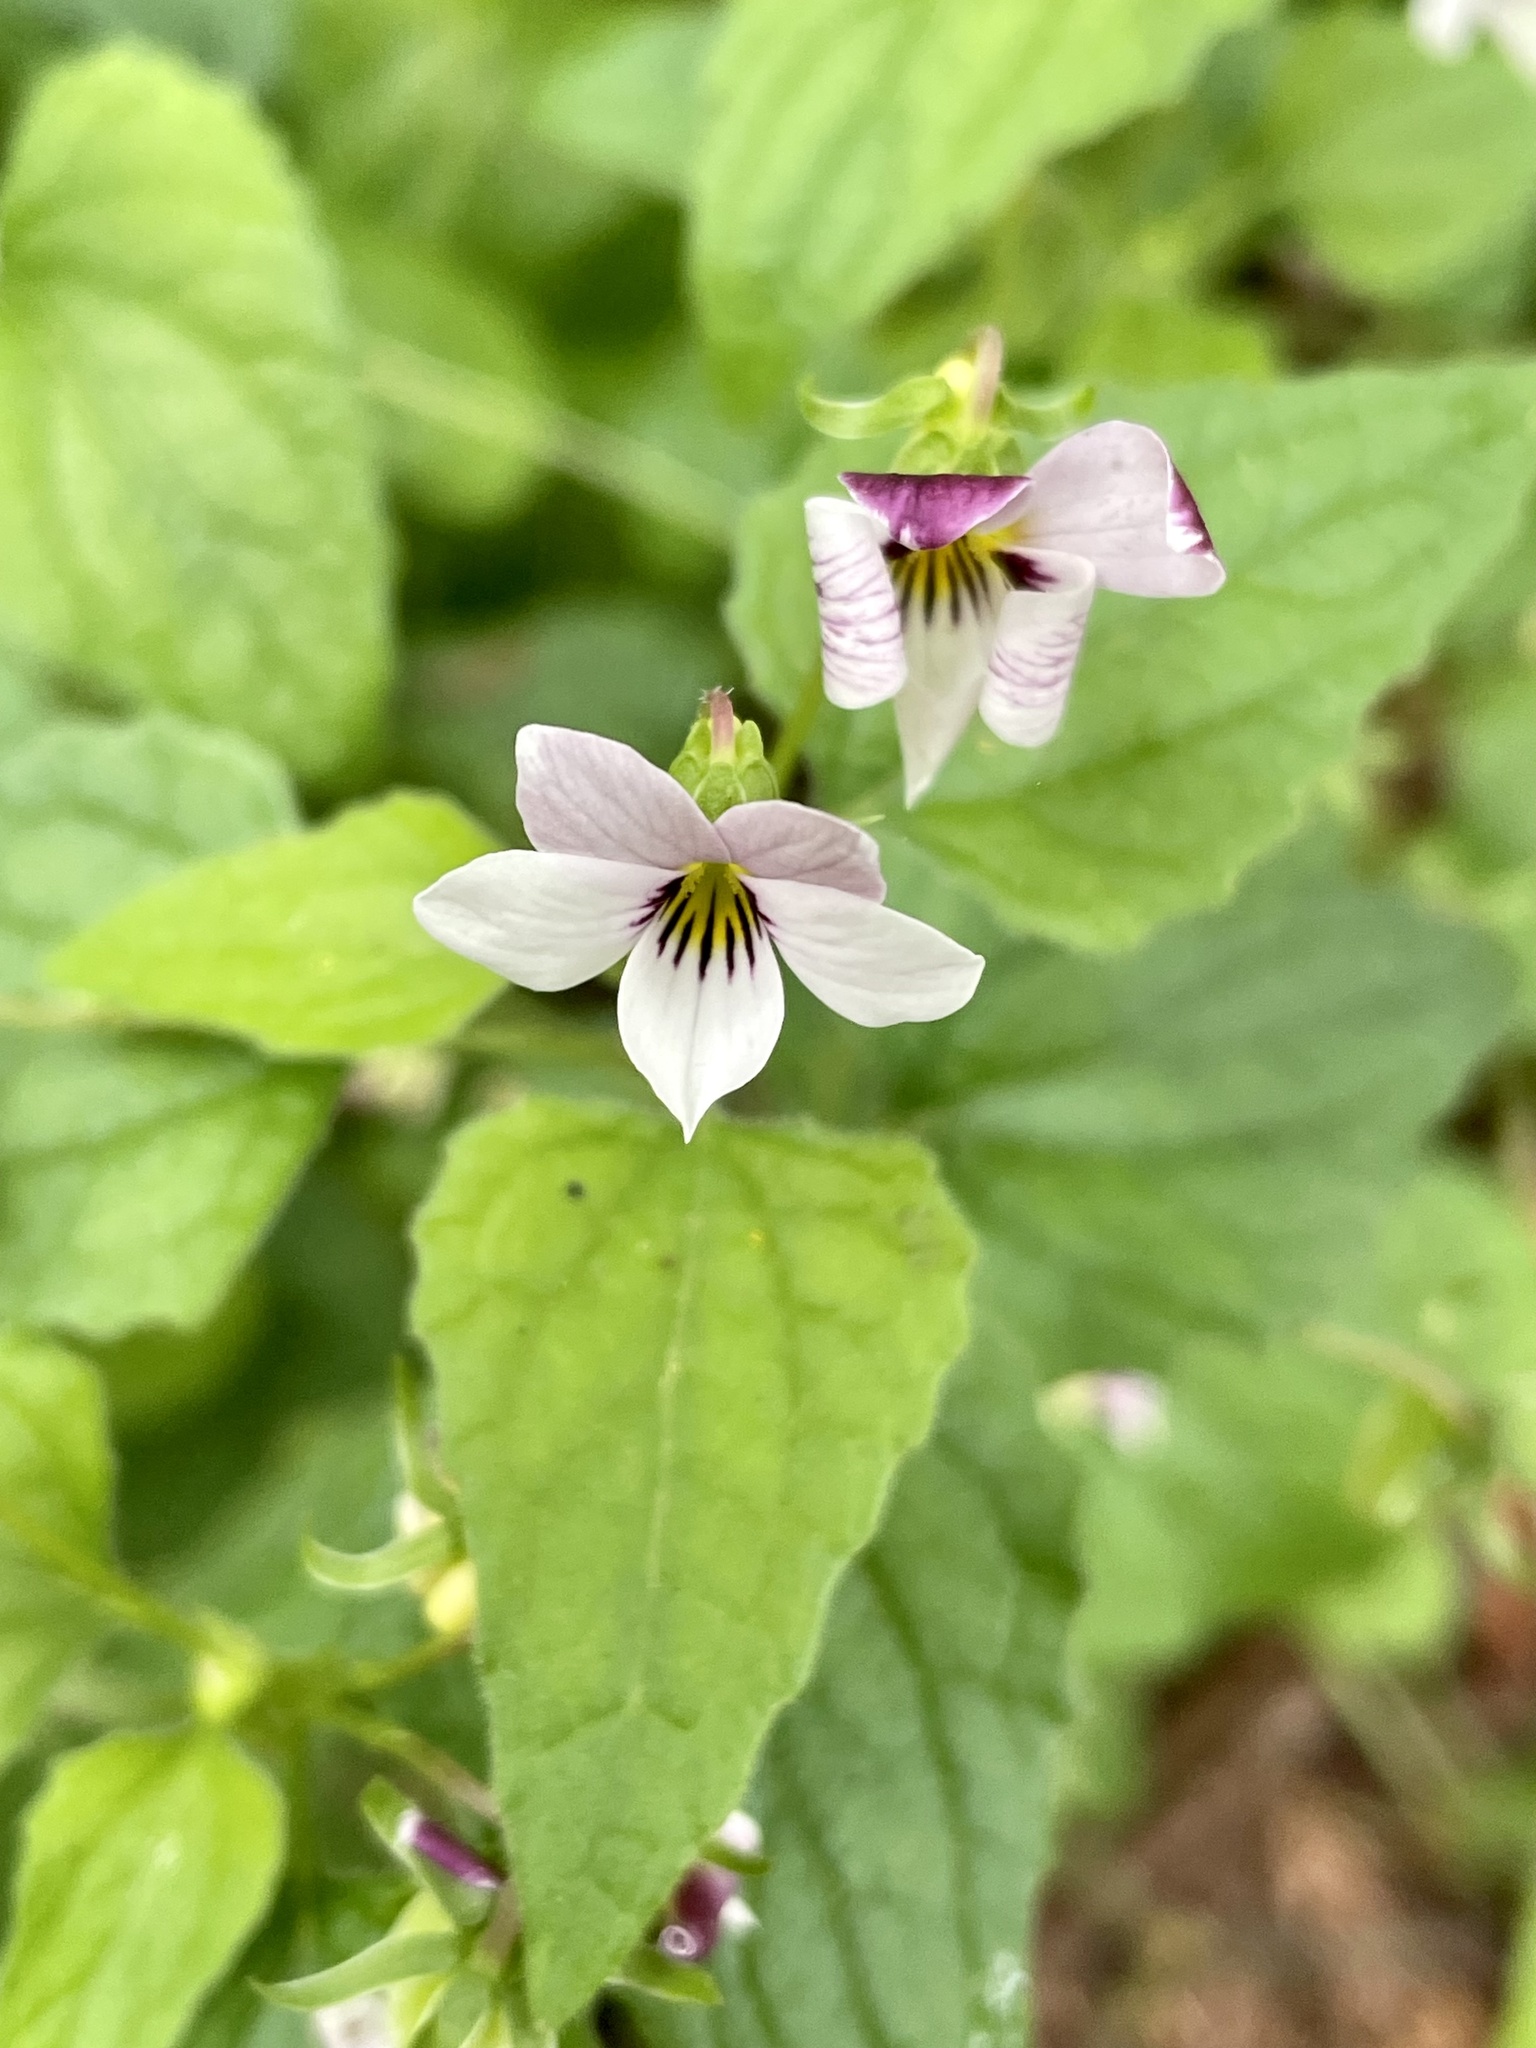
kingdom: Plantae
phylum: Tracheophyta
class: Magnoliopsida
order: Malpighiales
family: Violaceae
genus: Viola
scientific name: Viola ocellata
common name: Western heart's ease
